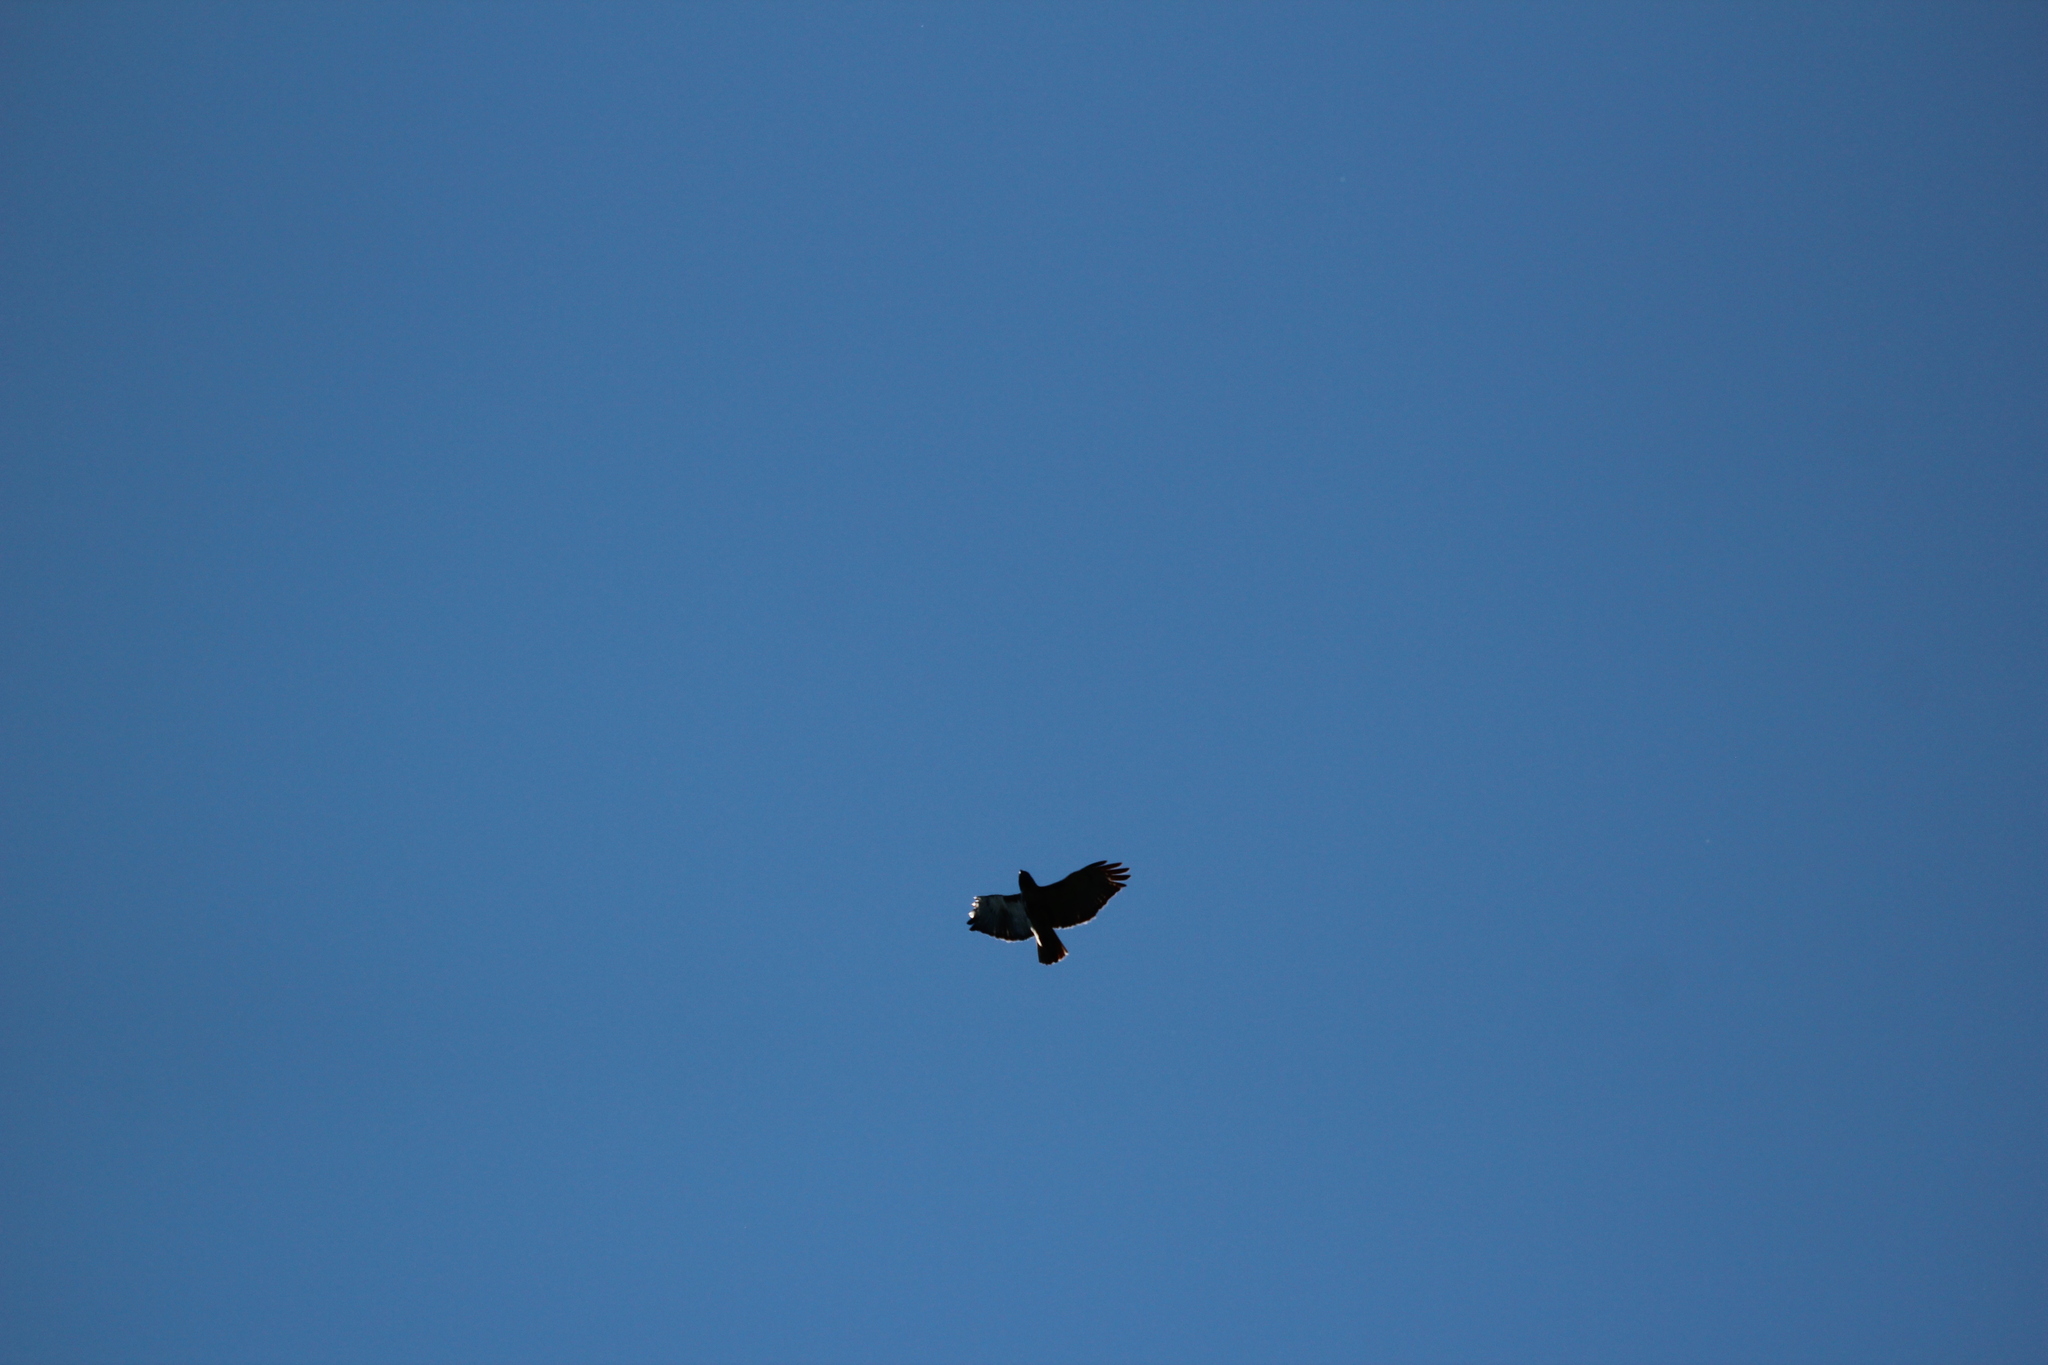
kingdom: Animalia
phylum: Chordata
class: Aves
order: Accipitriformes
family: Accipitridae
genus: Buteo
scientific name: Buteo jamaicensis
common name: Red-tailed hawk
